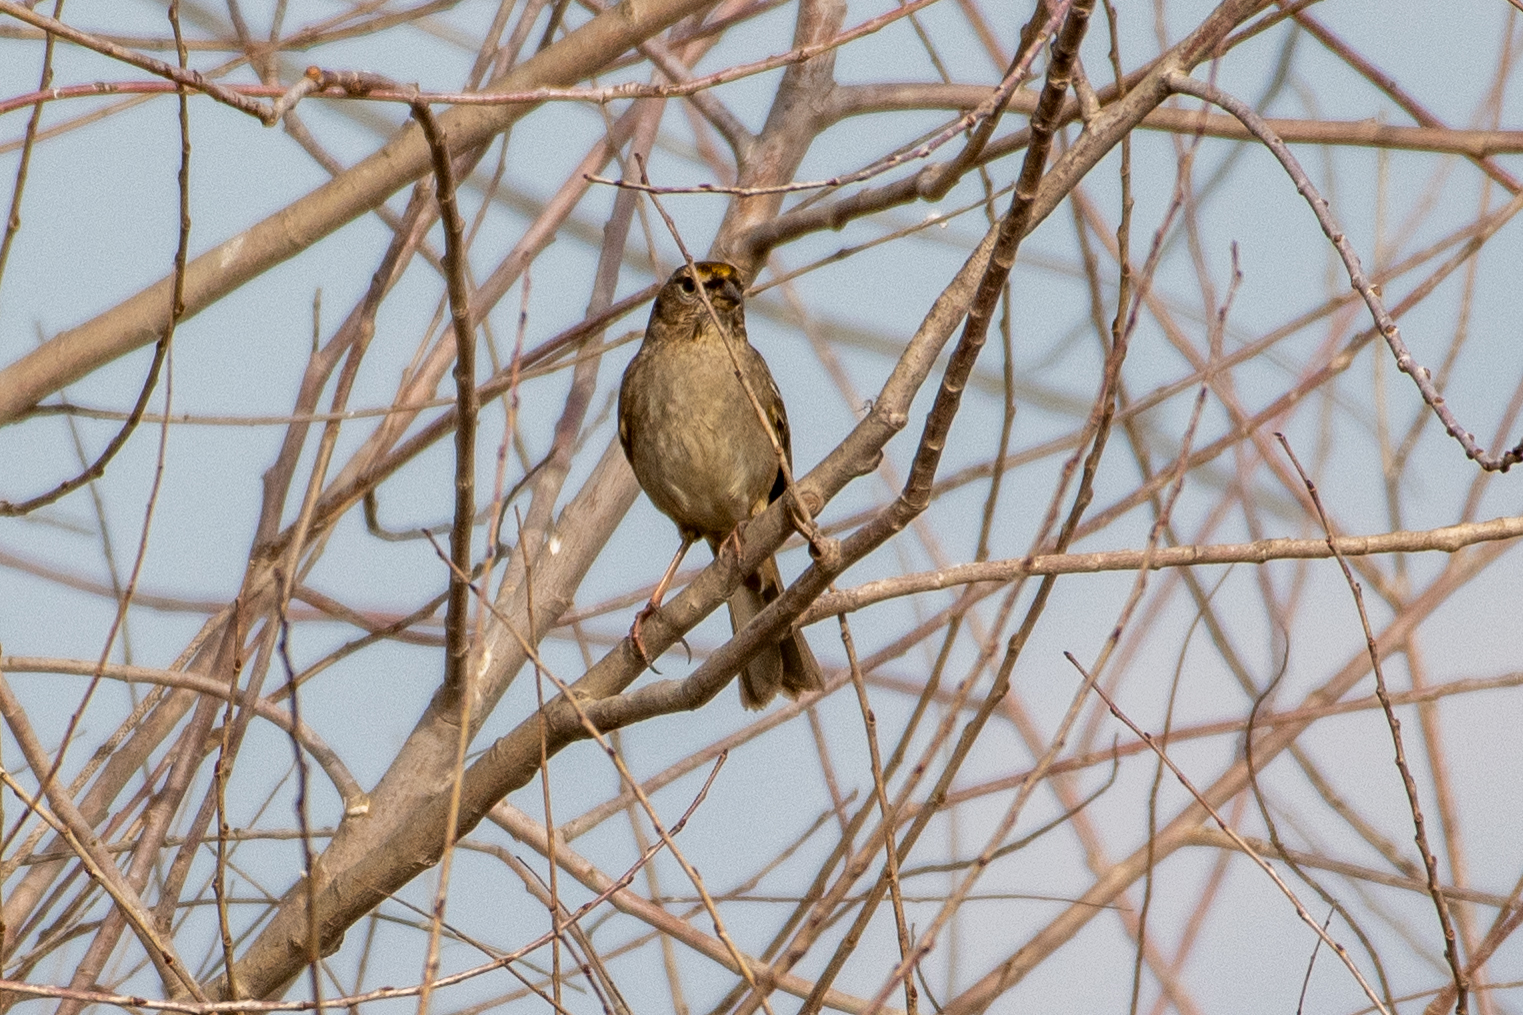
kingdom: Animalia
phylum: Chordata
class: Aves
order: Passeriformes
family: Passerellidae
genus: Zonotrichia
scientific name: Zonotrichia atricapilla
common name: Golden-crowned sparrow
